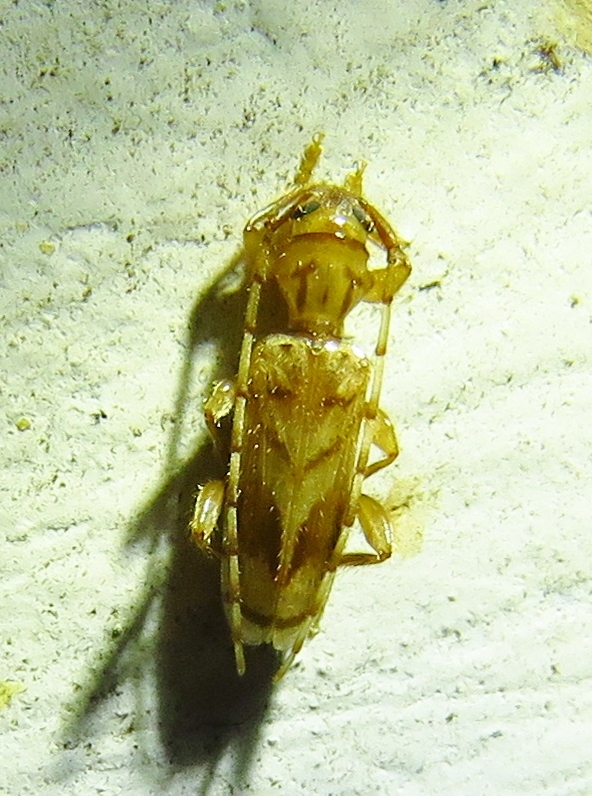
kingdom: Animalia
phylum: Arthropoda
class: Insecta
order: Coleoptera
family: Cerambycidae
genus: Obrium
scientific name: Obrium maculatum
